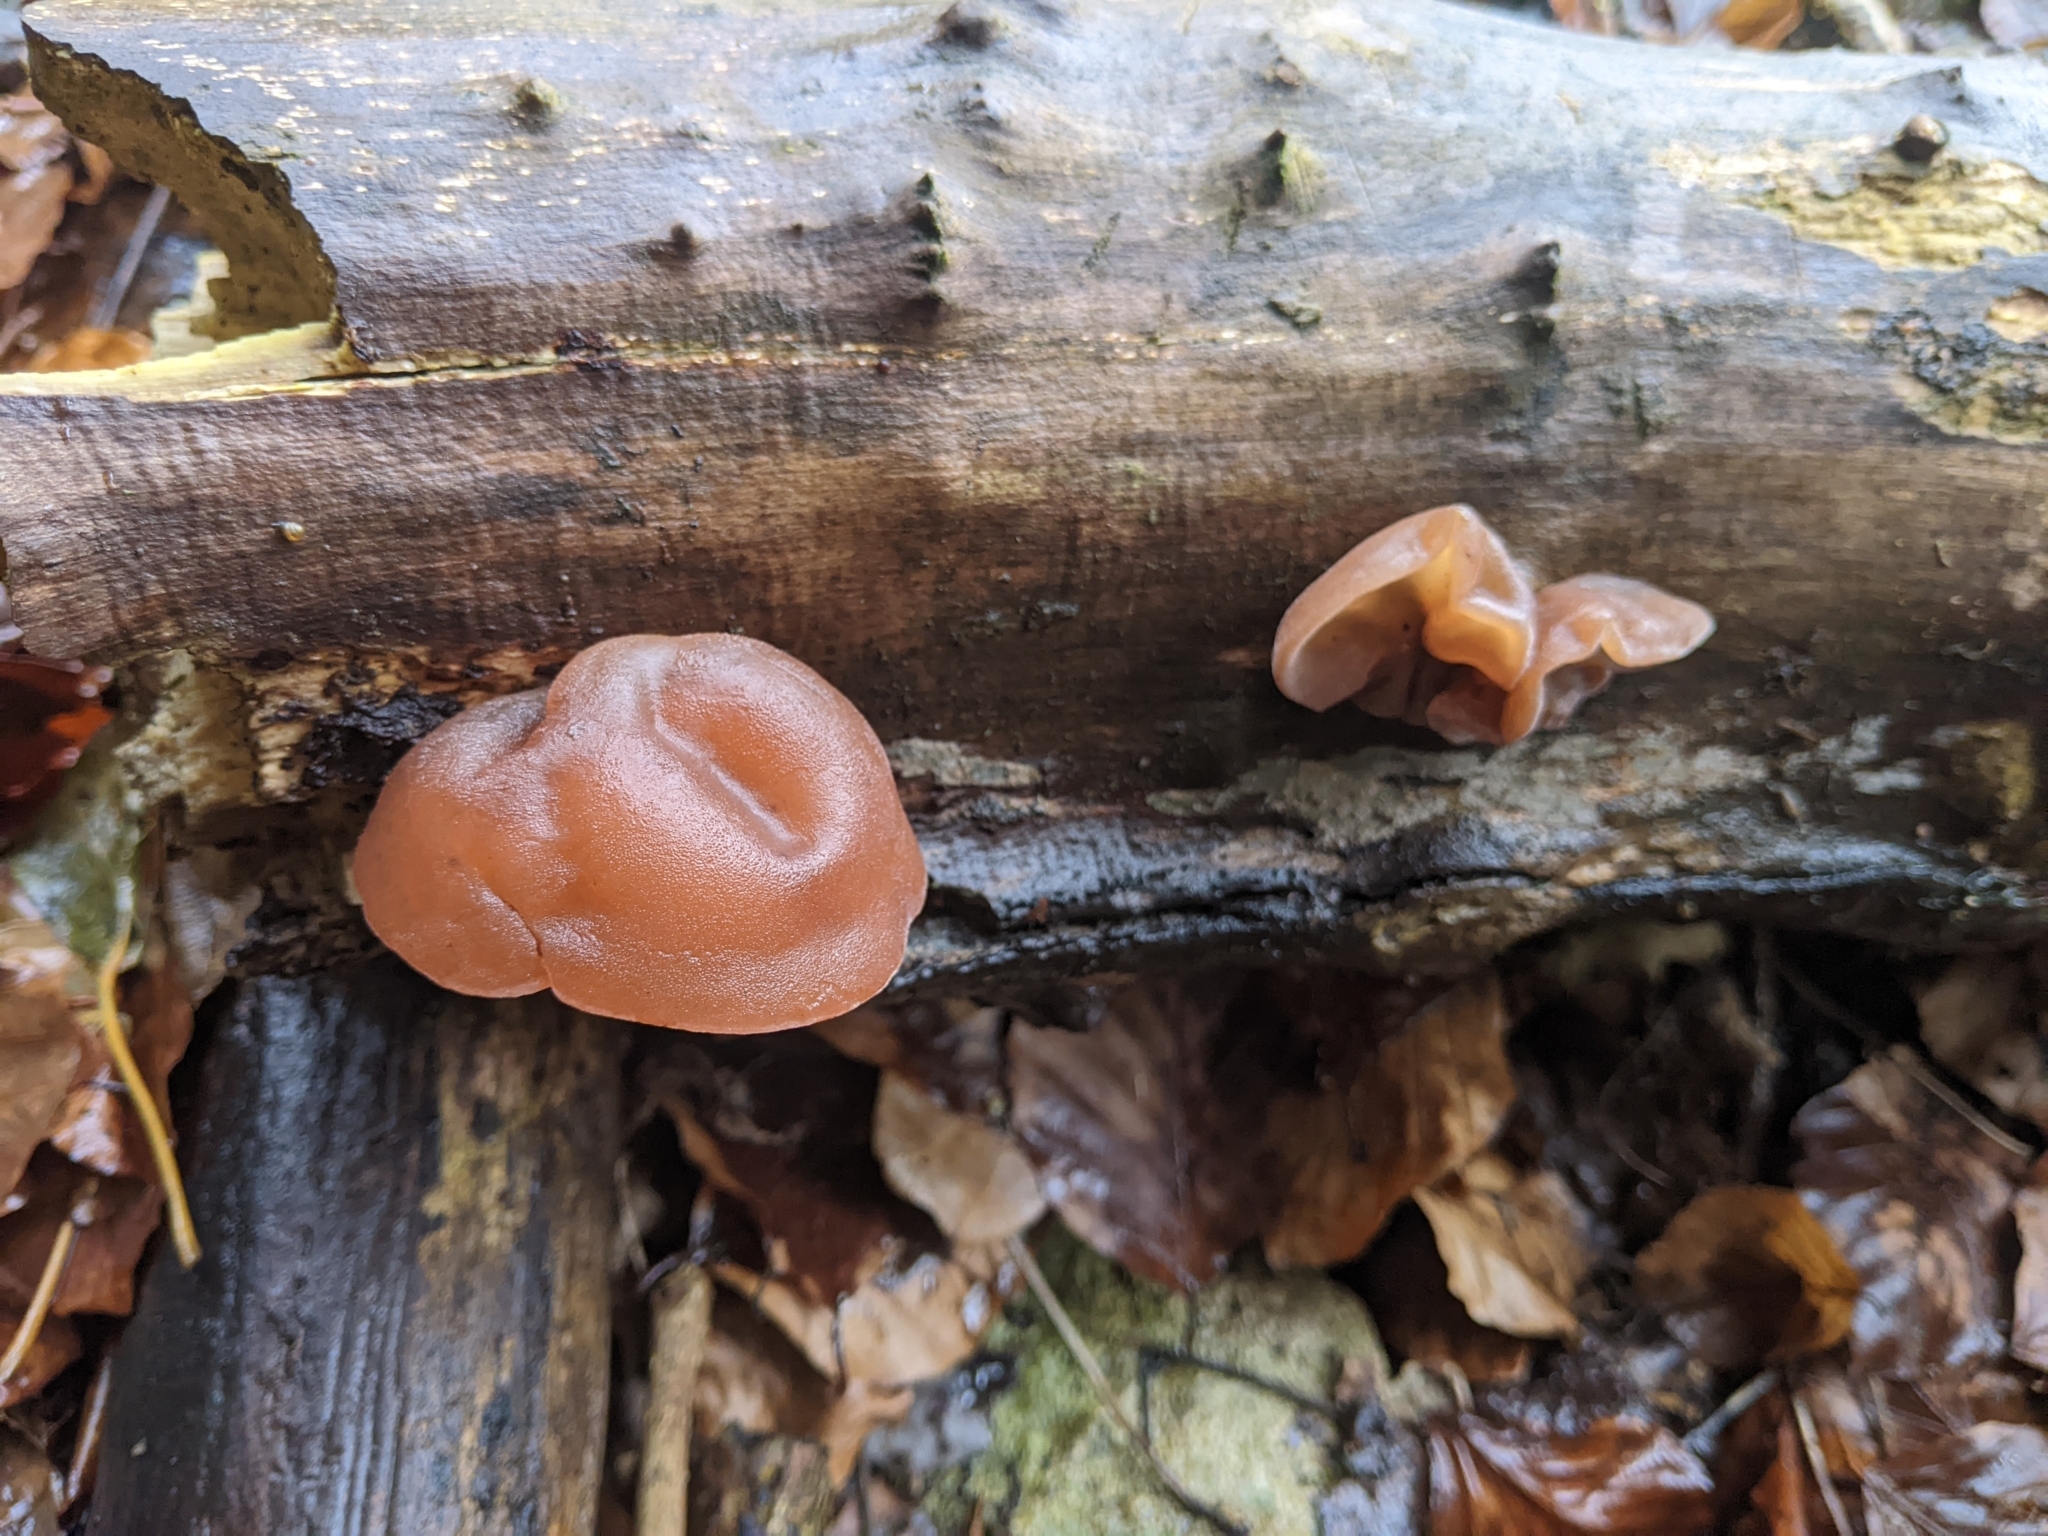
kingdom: Fungi
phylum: Basidiomycota
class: Agaricomycetes
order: Auriculariales
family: Auriculariaceae
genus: Auricularia
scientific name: Auricularia auricula-judae
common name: Jelly ear
